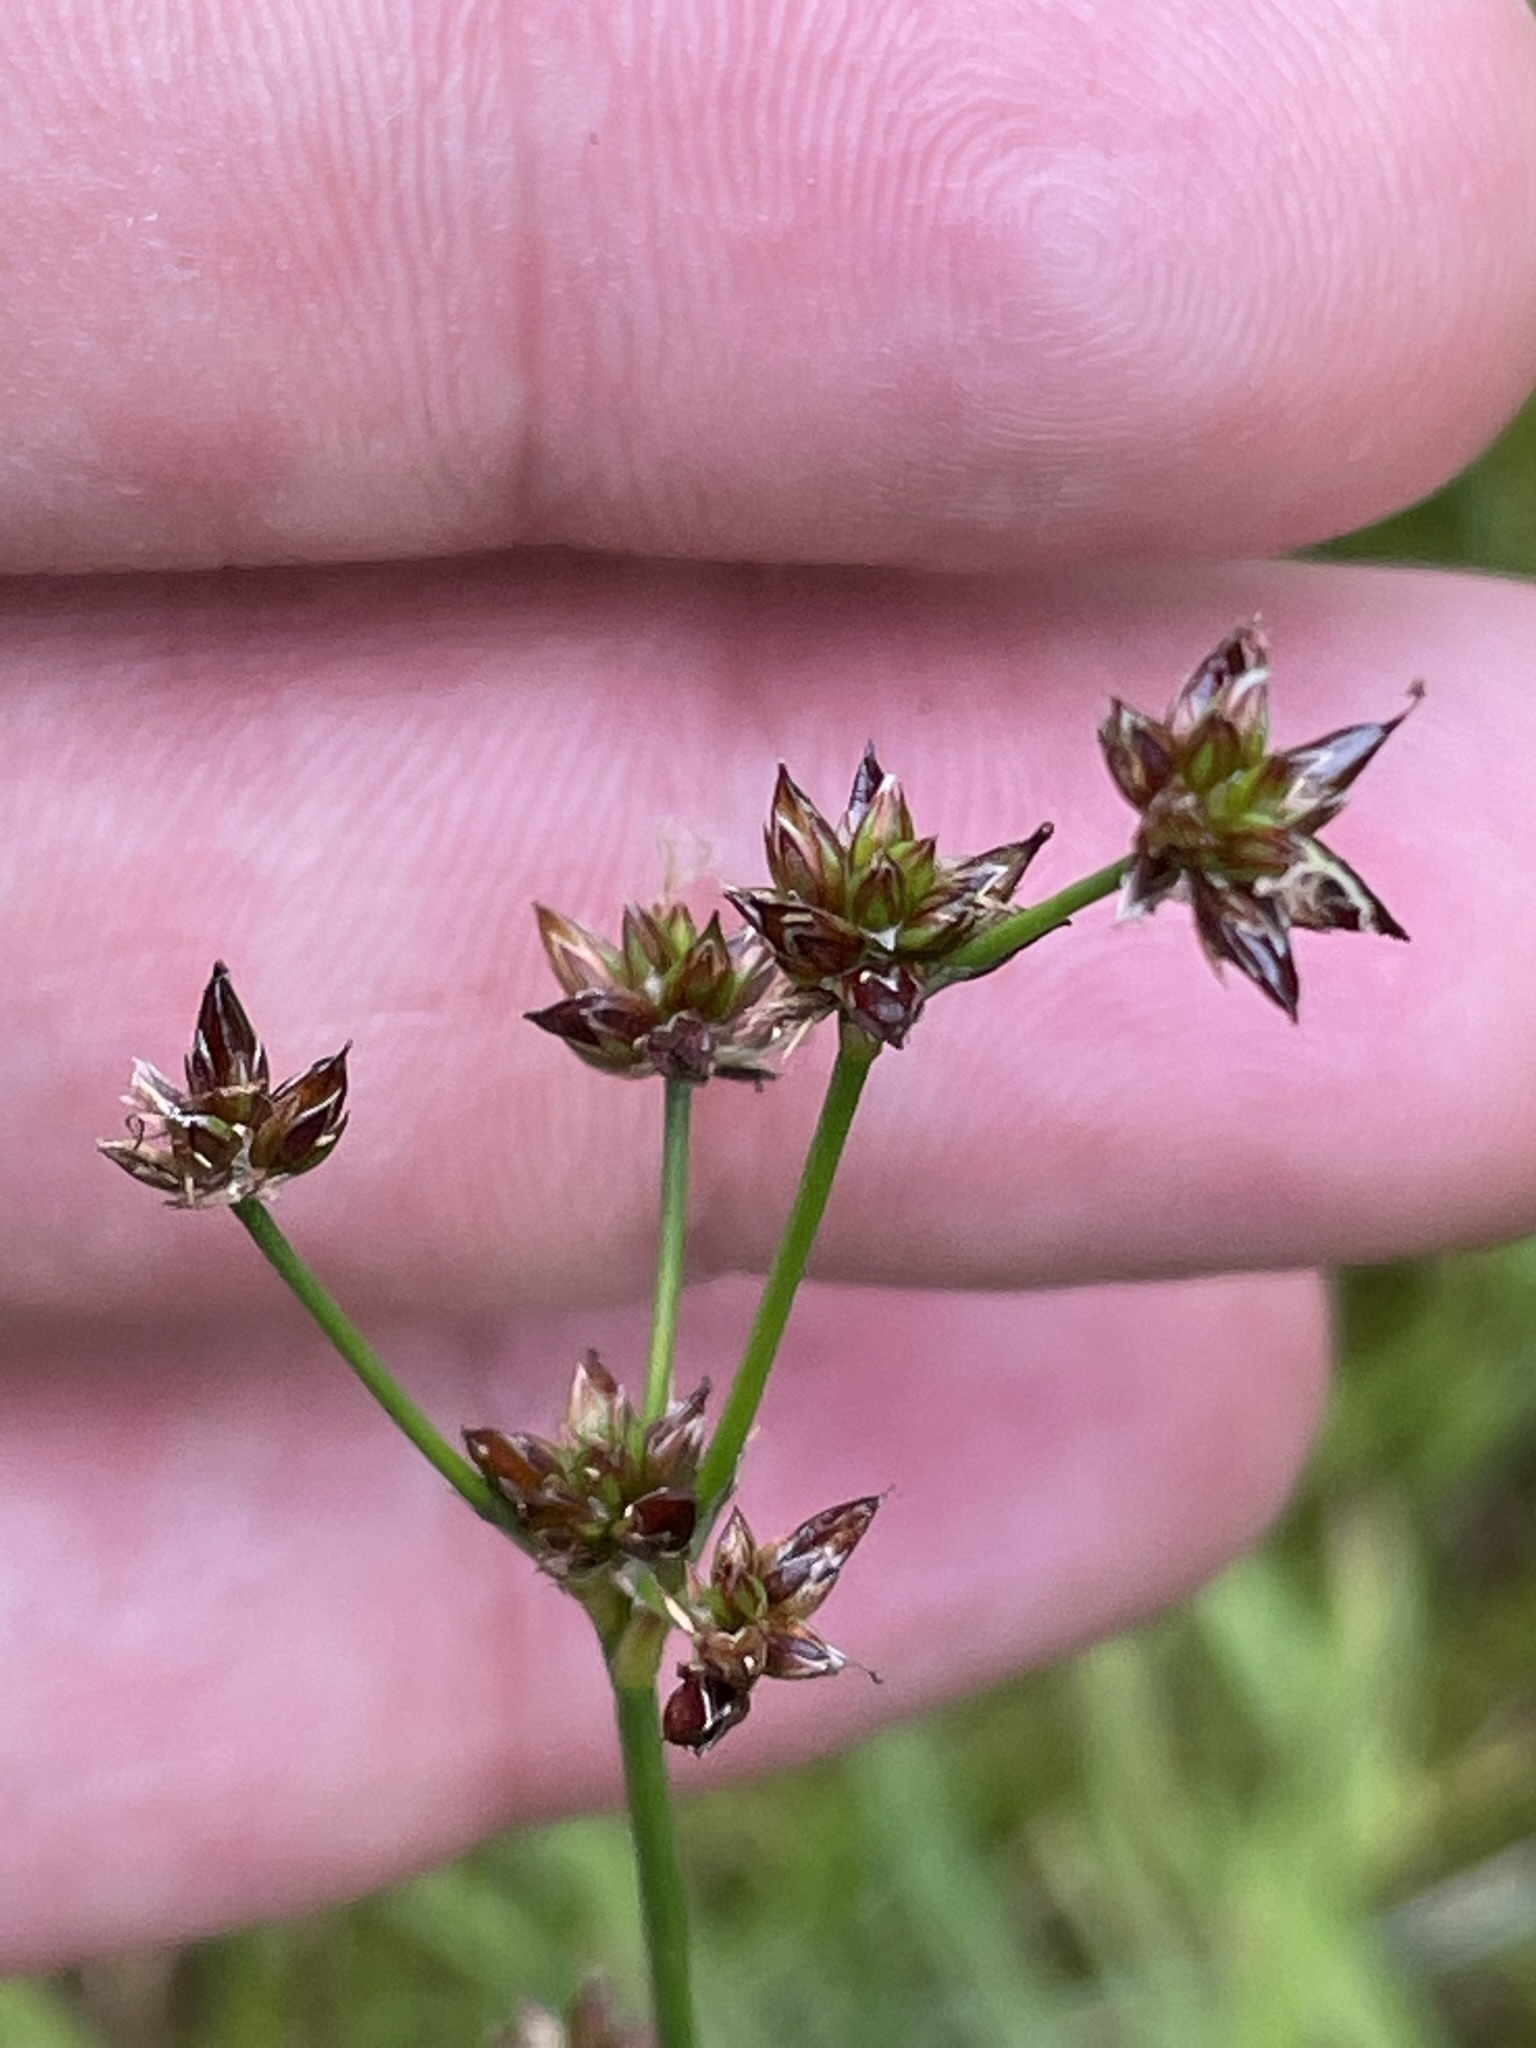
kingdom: Plantae
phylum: Tracheophyta
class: Liliopsida
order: Poales
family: Juncaceae
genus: Juncus
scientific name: Juncus articulatus
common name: Jointed rush
